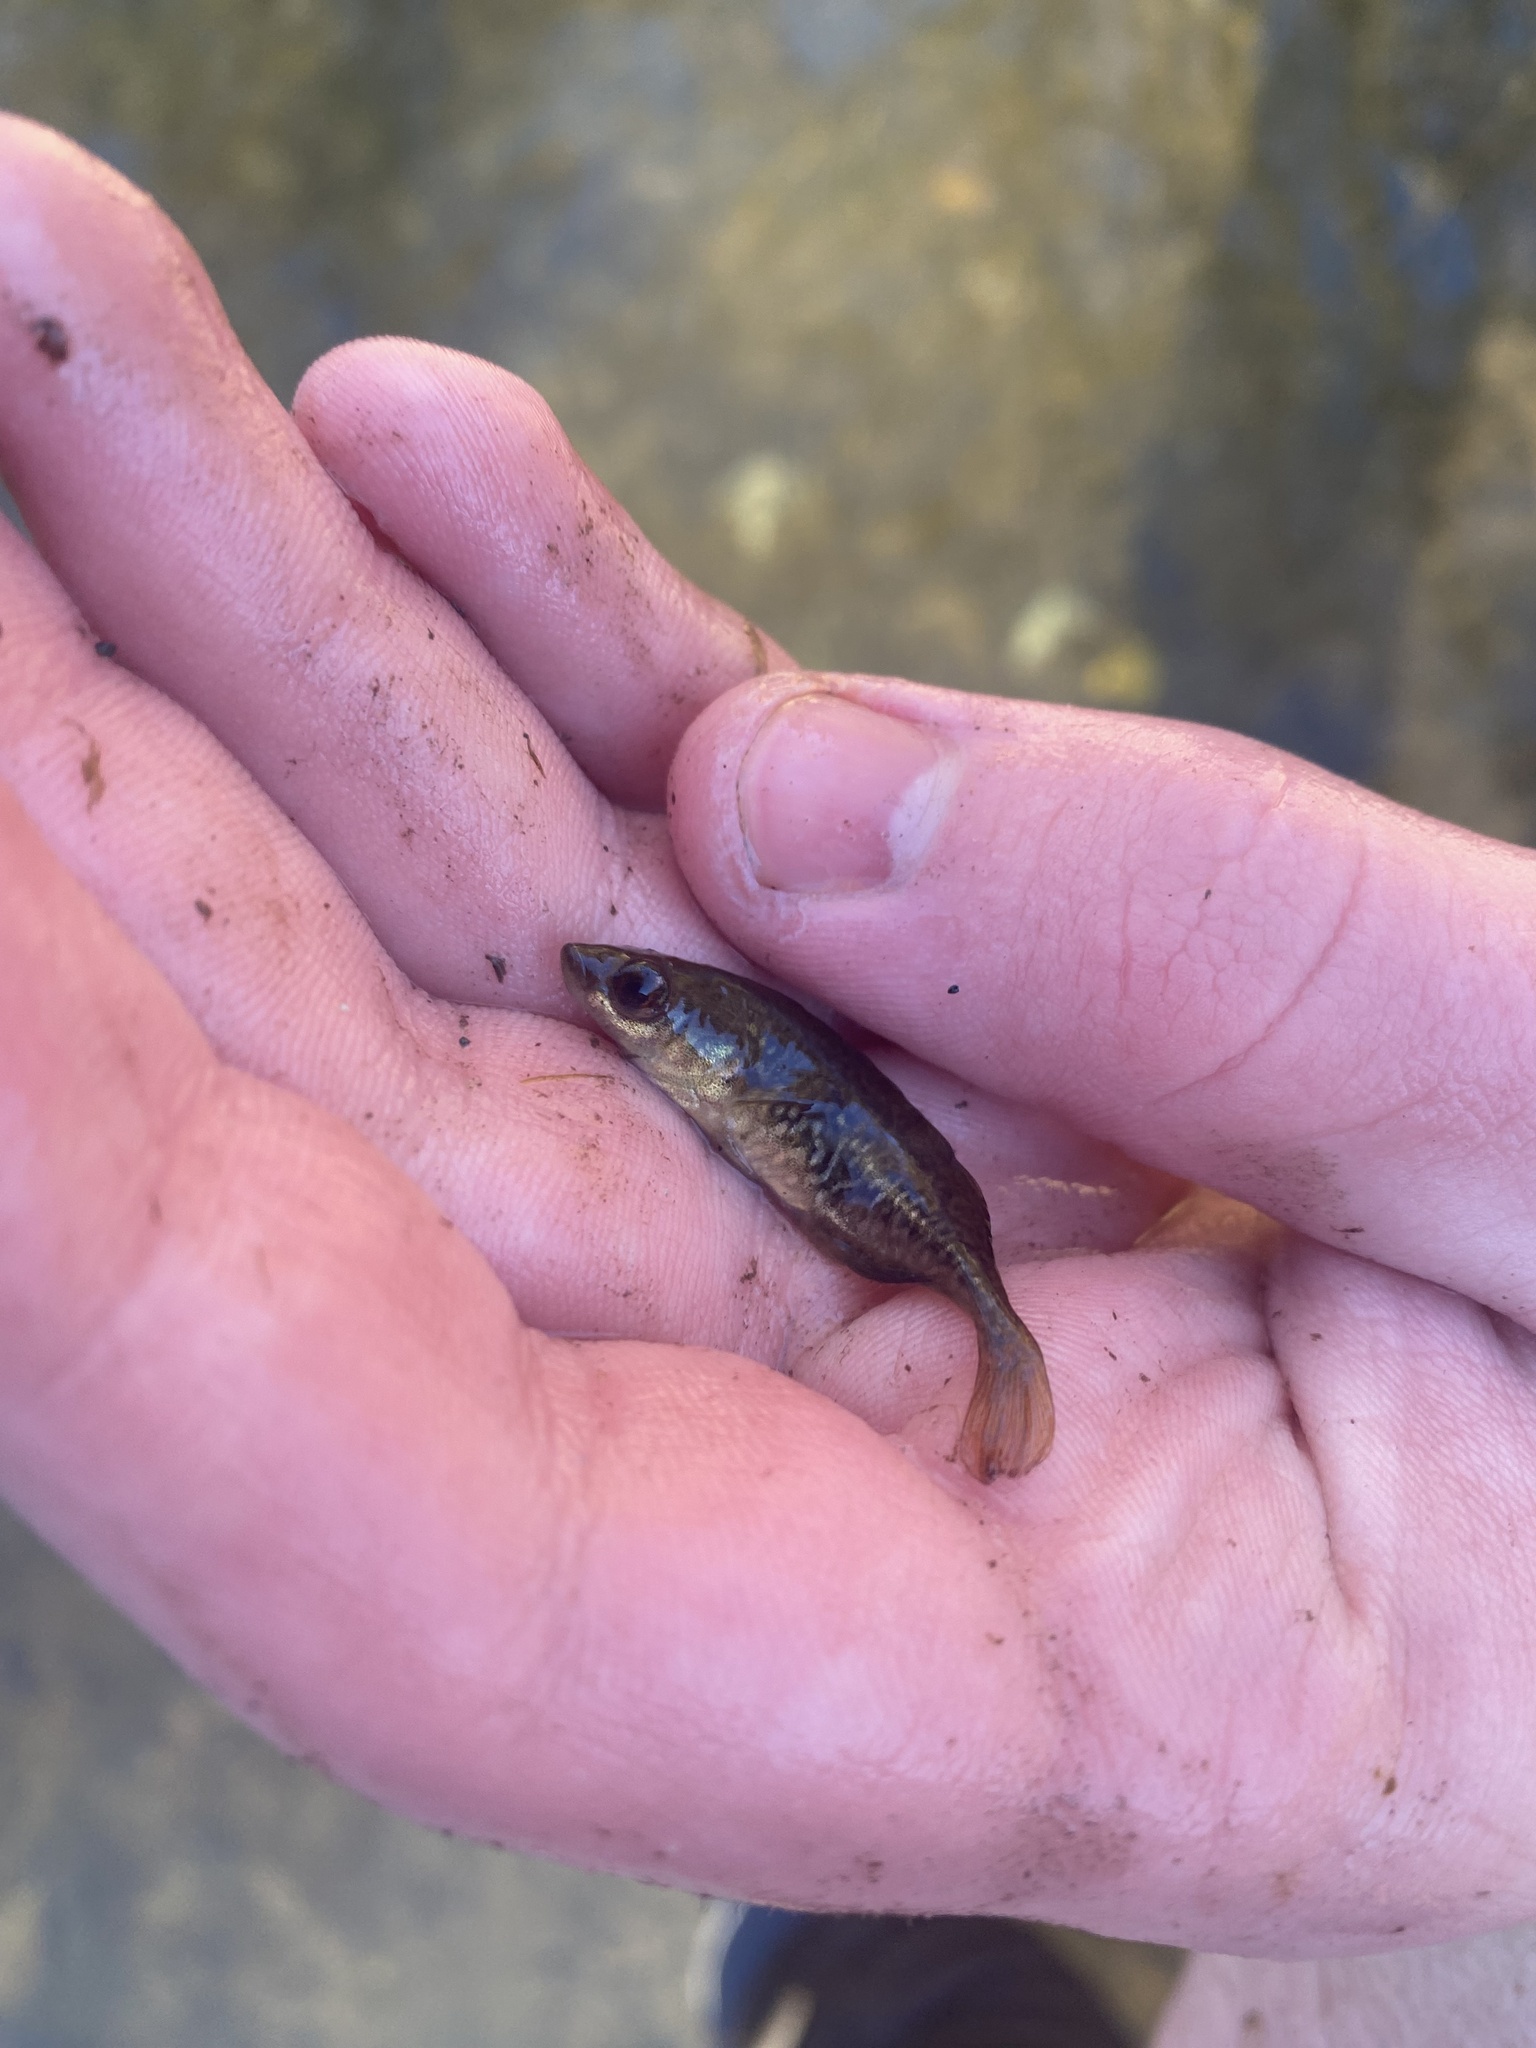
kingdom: Animalia
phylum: Chordata
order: Gasterosteiformes
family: Gasterosteidae
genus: Culaea
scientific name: Culaea inconstans
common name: Brook stickleback
